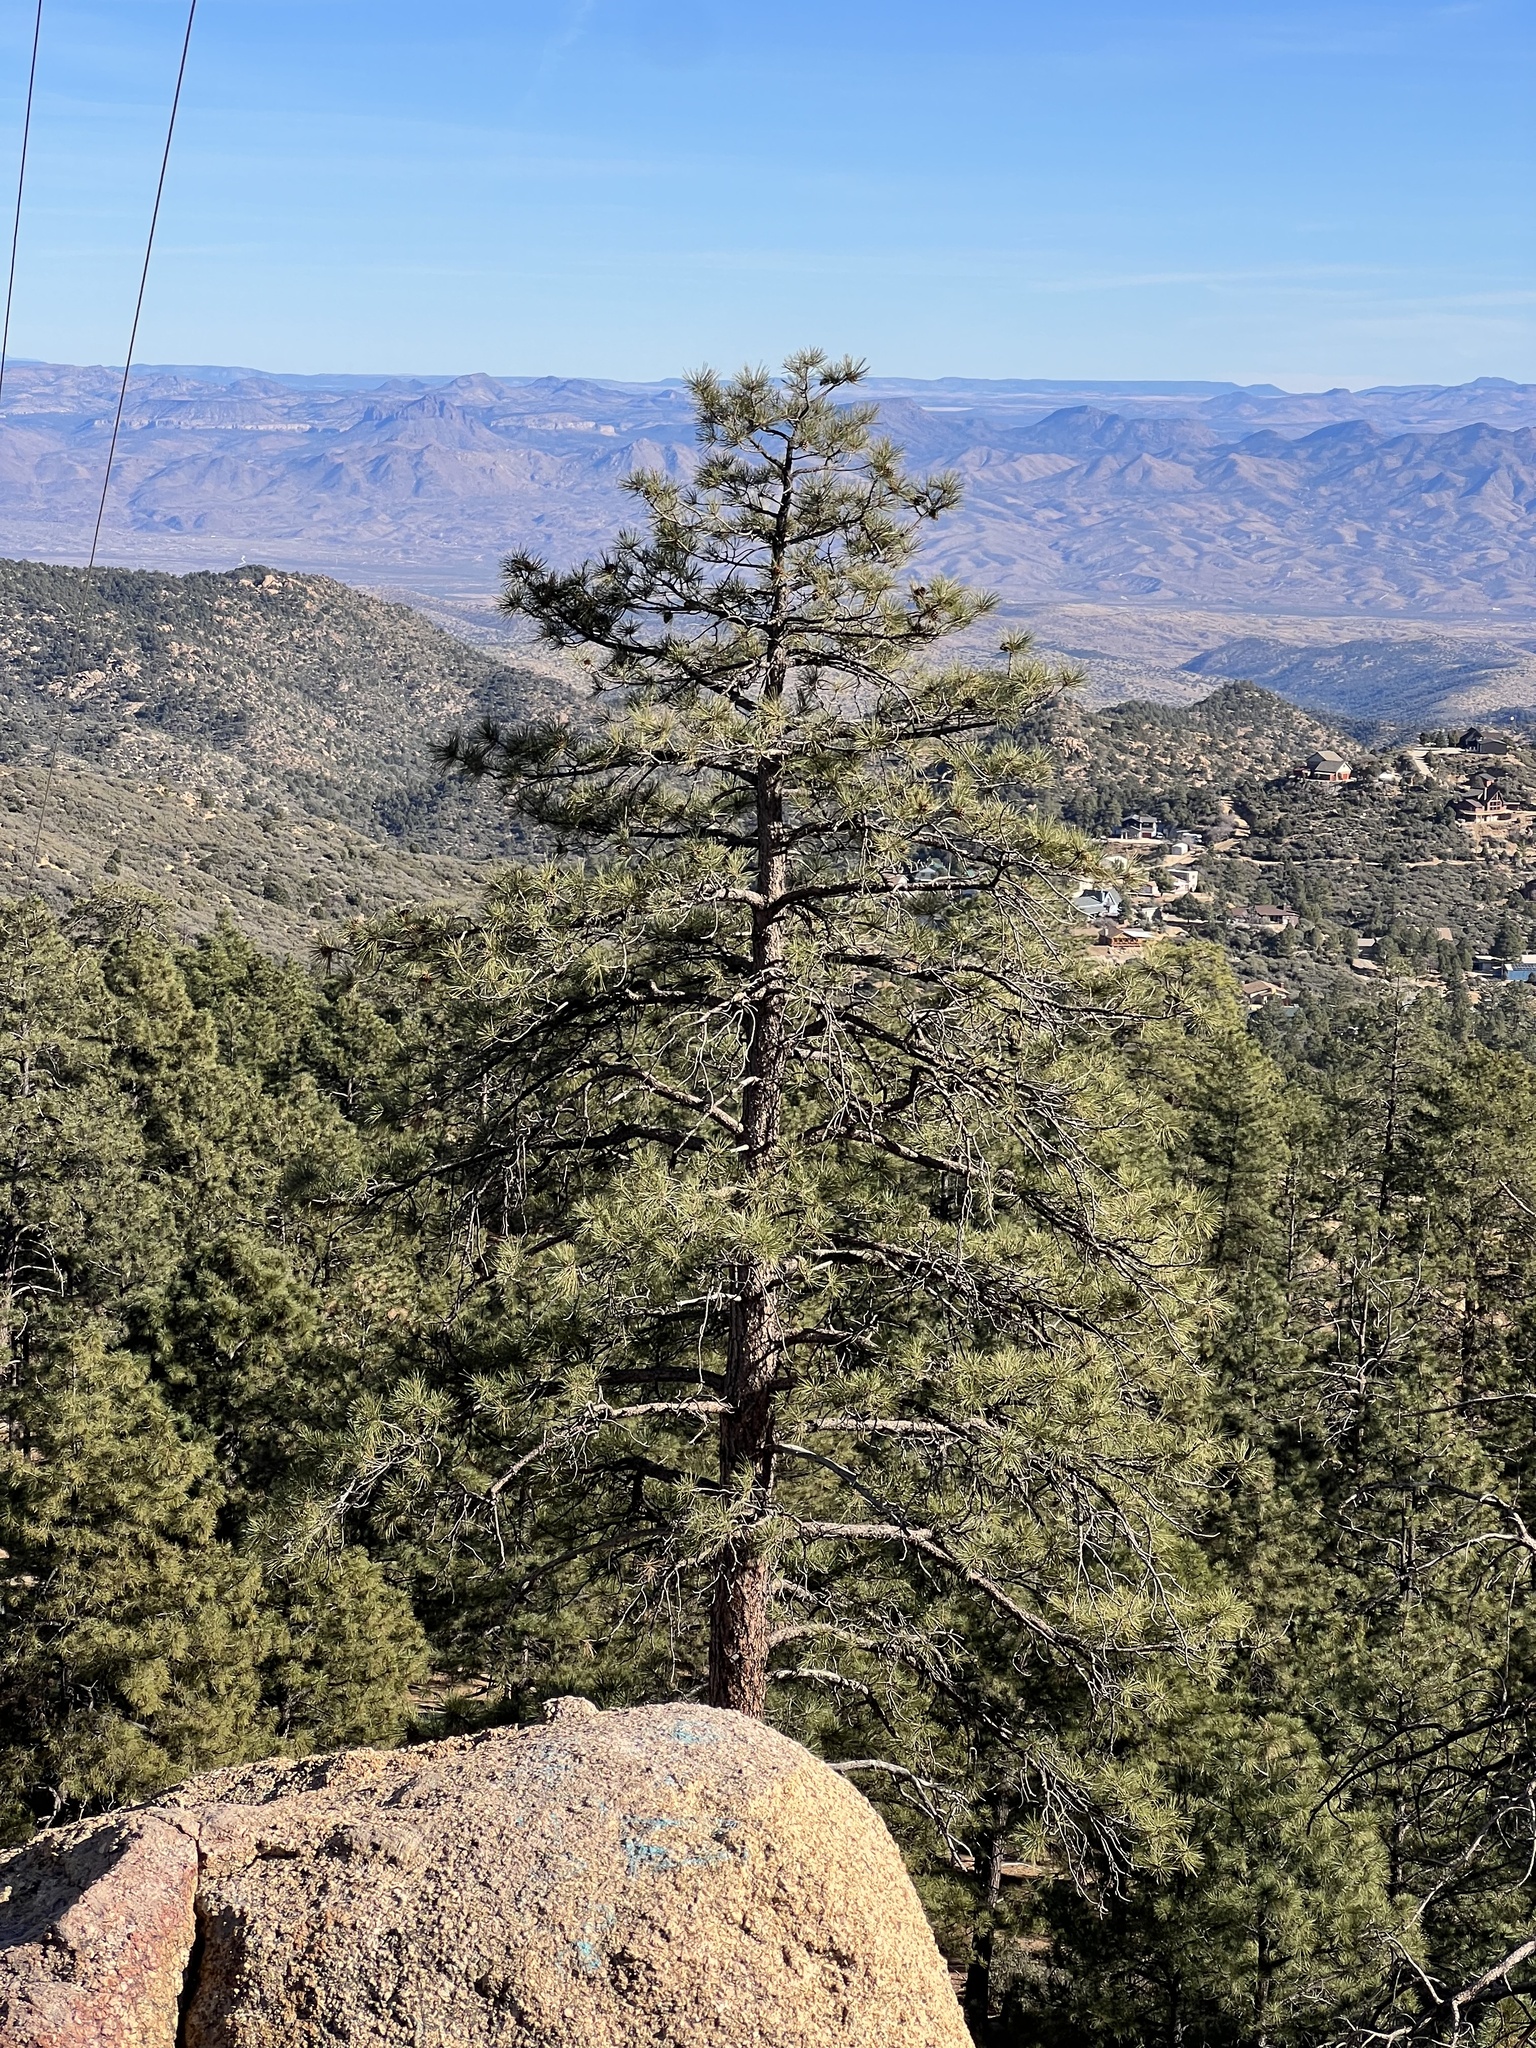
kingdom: Plantae
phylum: Tracheophyta
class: Pinopsida
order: Pinales
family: Pinaceae
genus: Pinus
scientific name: Pinus ponderosa
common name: Western yellow-pine
